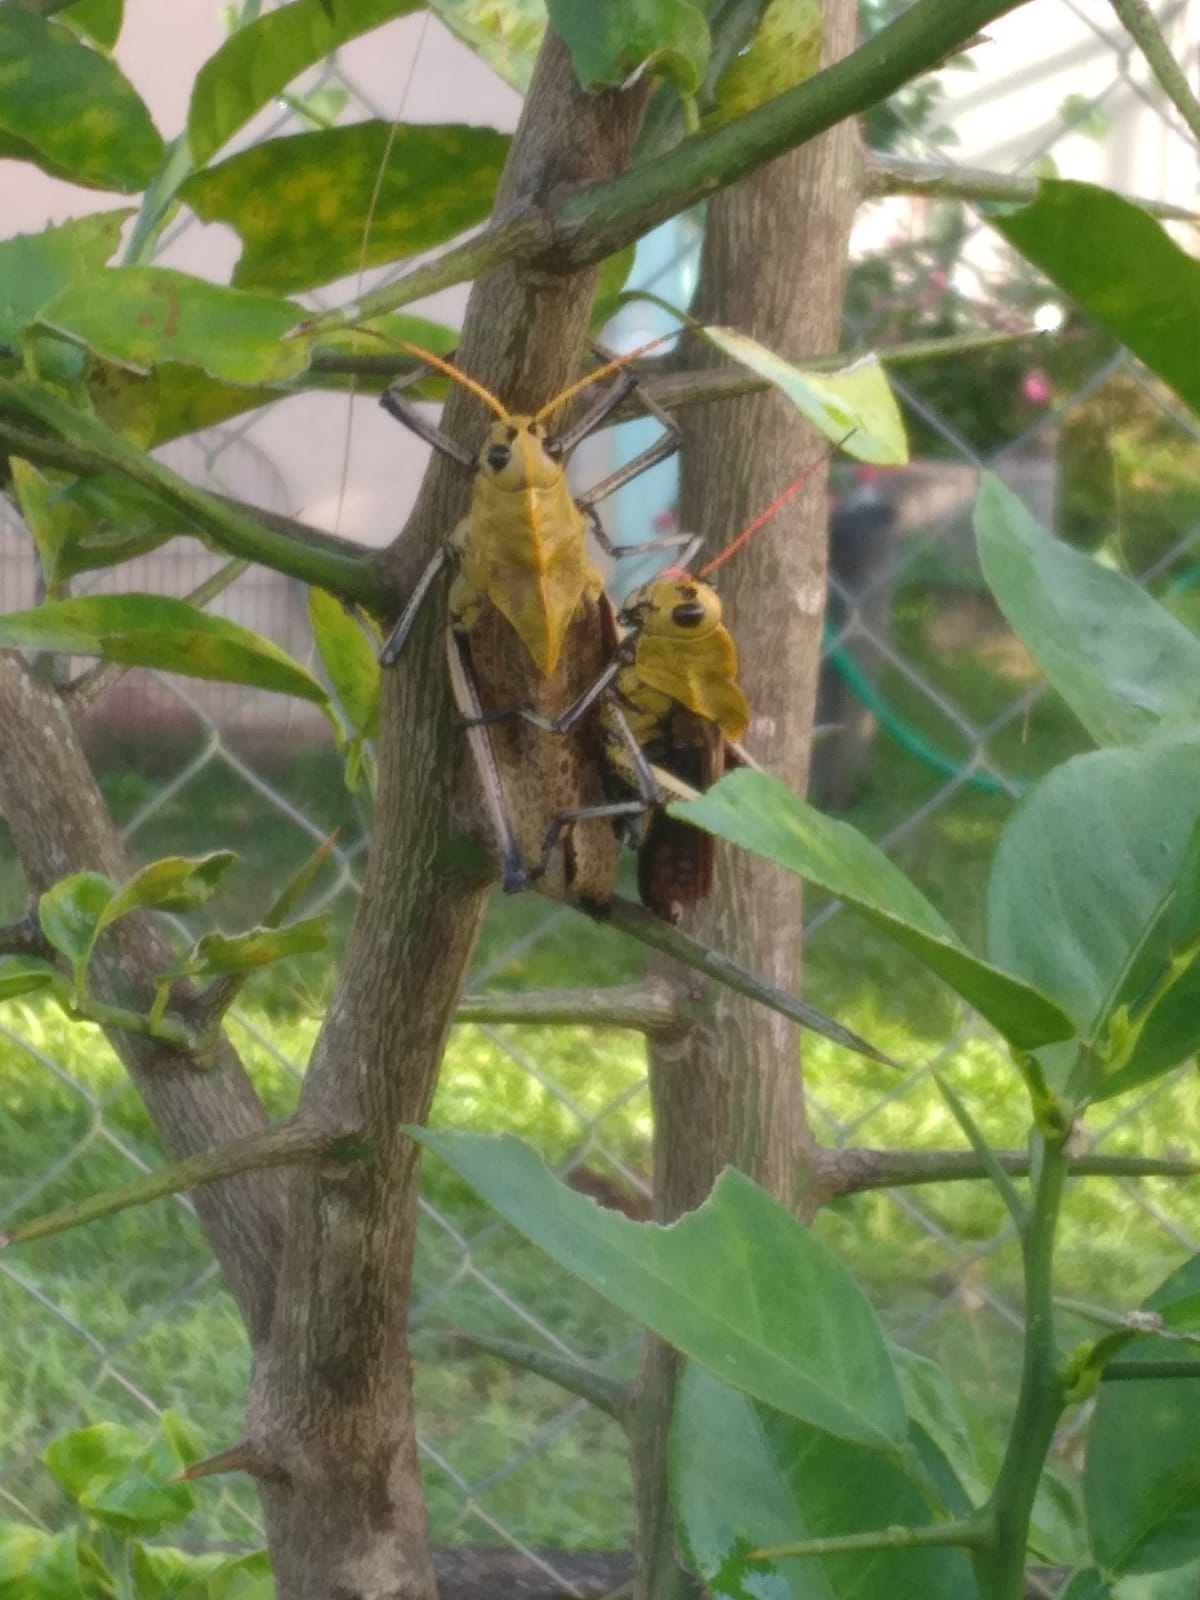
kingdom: Animalia
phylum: Arthropoda
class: Insecta
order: Orthoptera
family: Romaleidae
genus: Romalea
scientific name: Romalea
